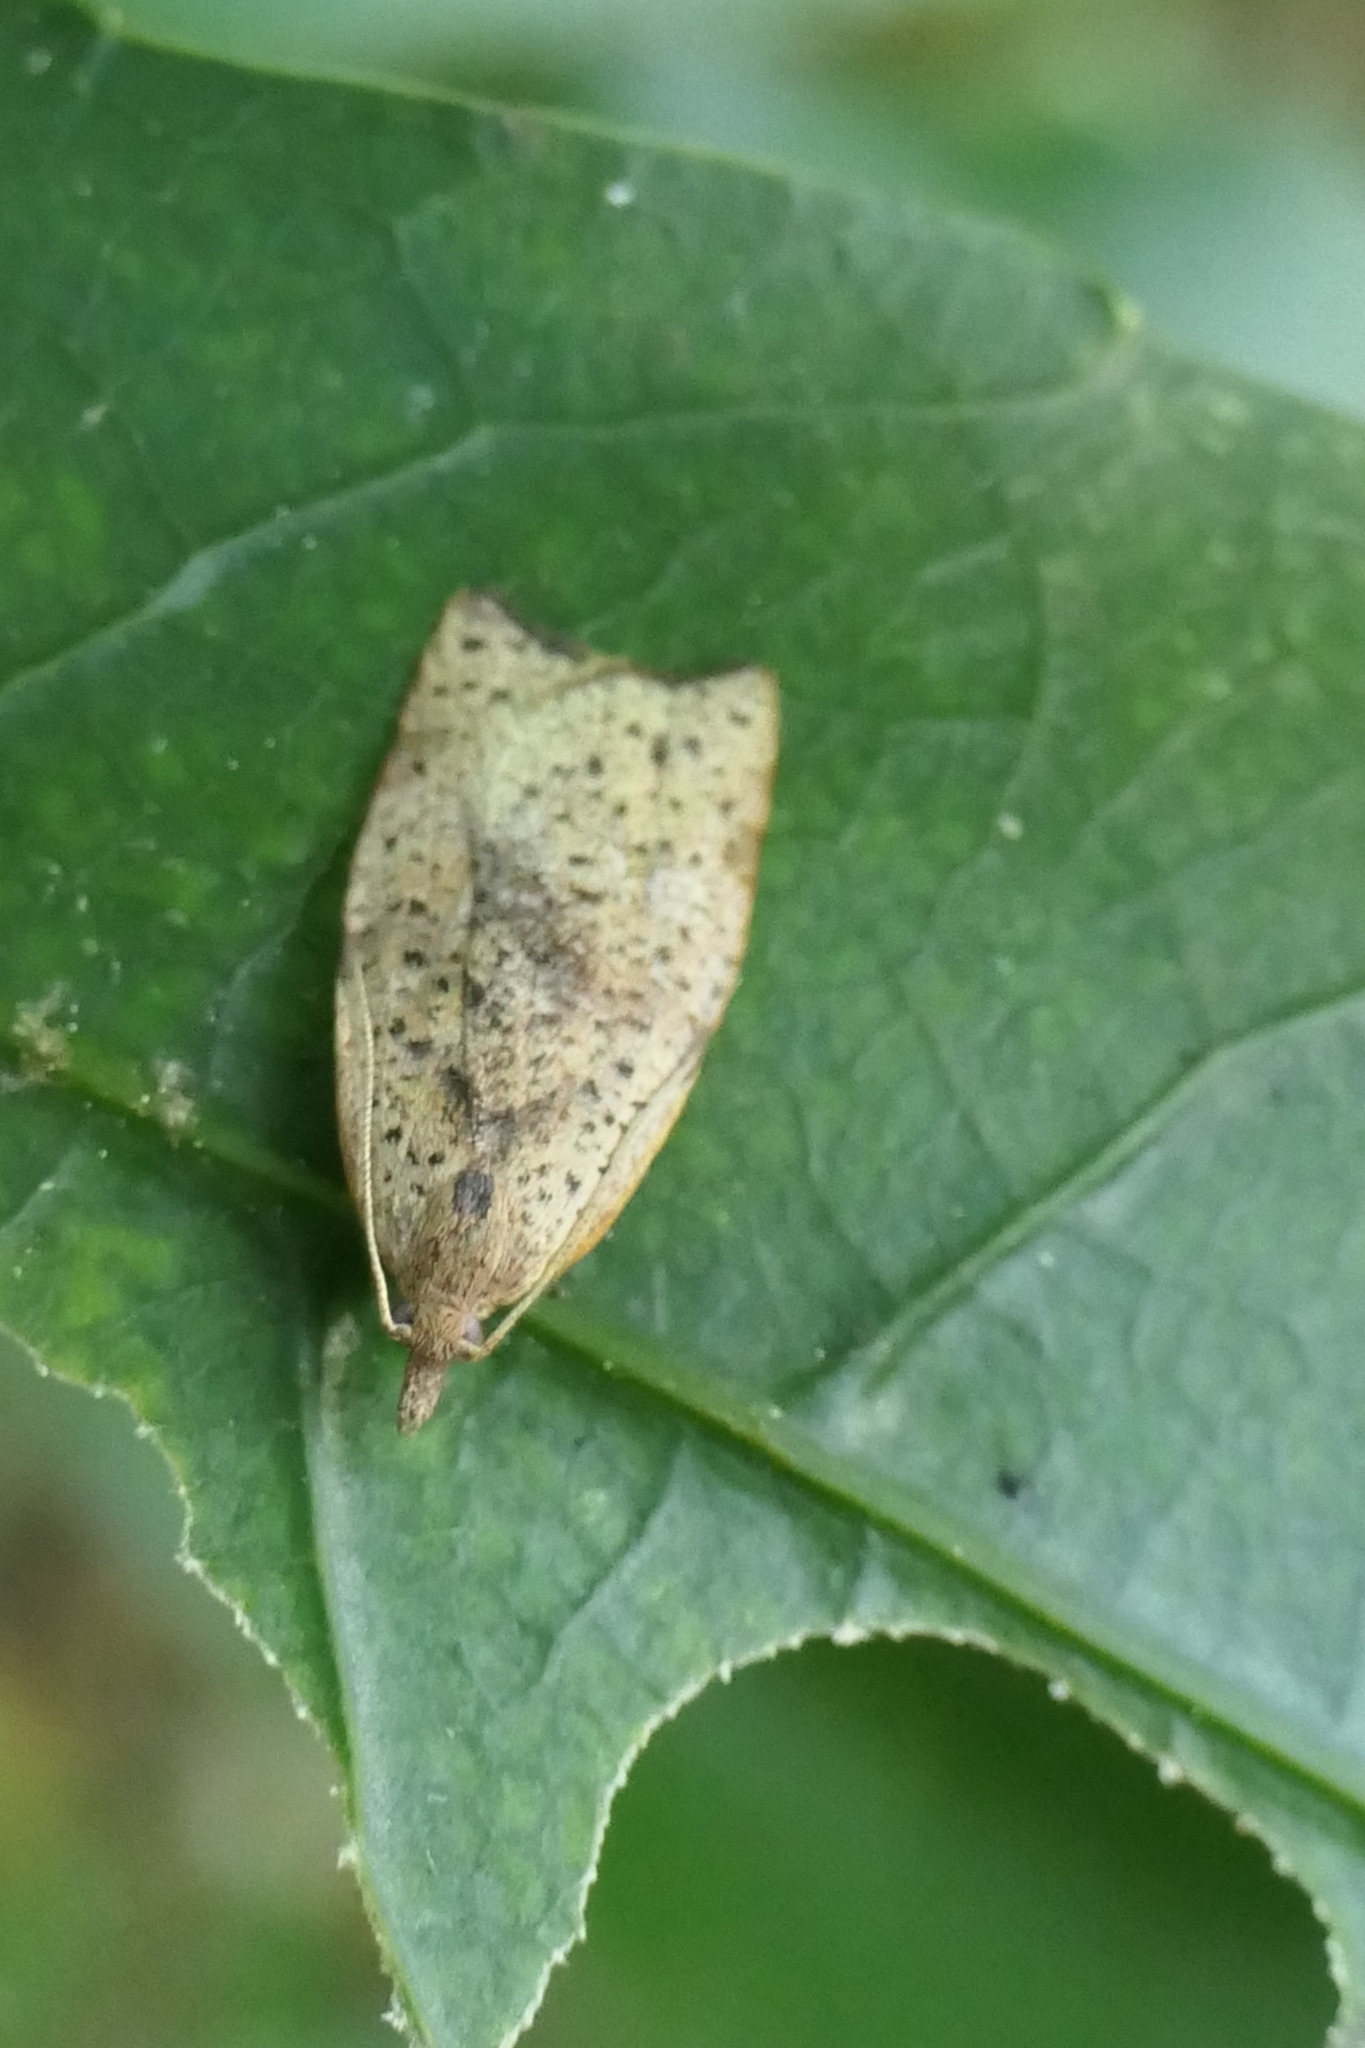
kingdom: Animalia
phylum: Arthropoda
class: Insecta
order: Lepidoptera
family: Tortricidae
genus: Apoctena
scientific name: Apoctena flavescens
